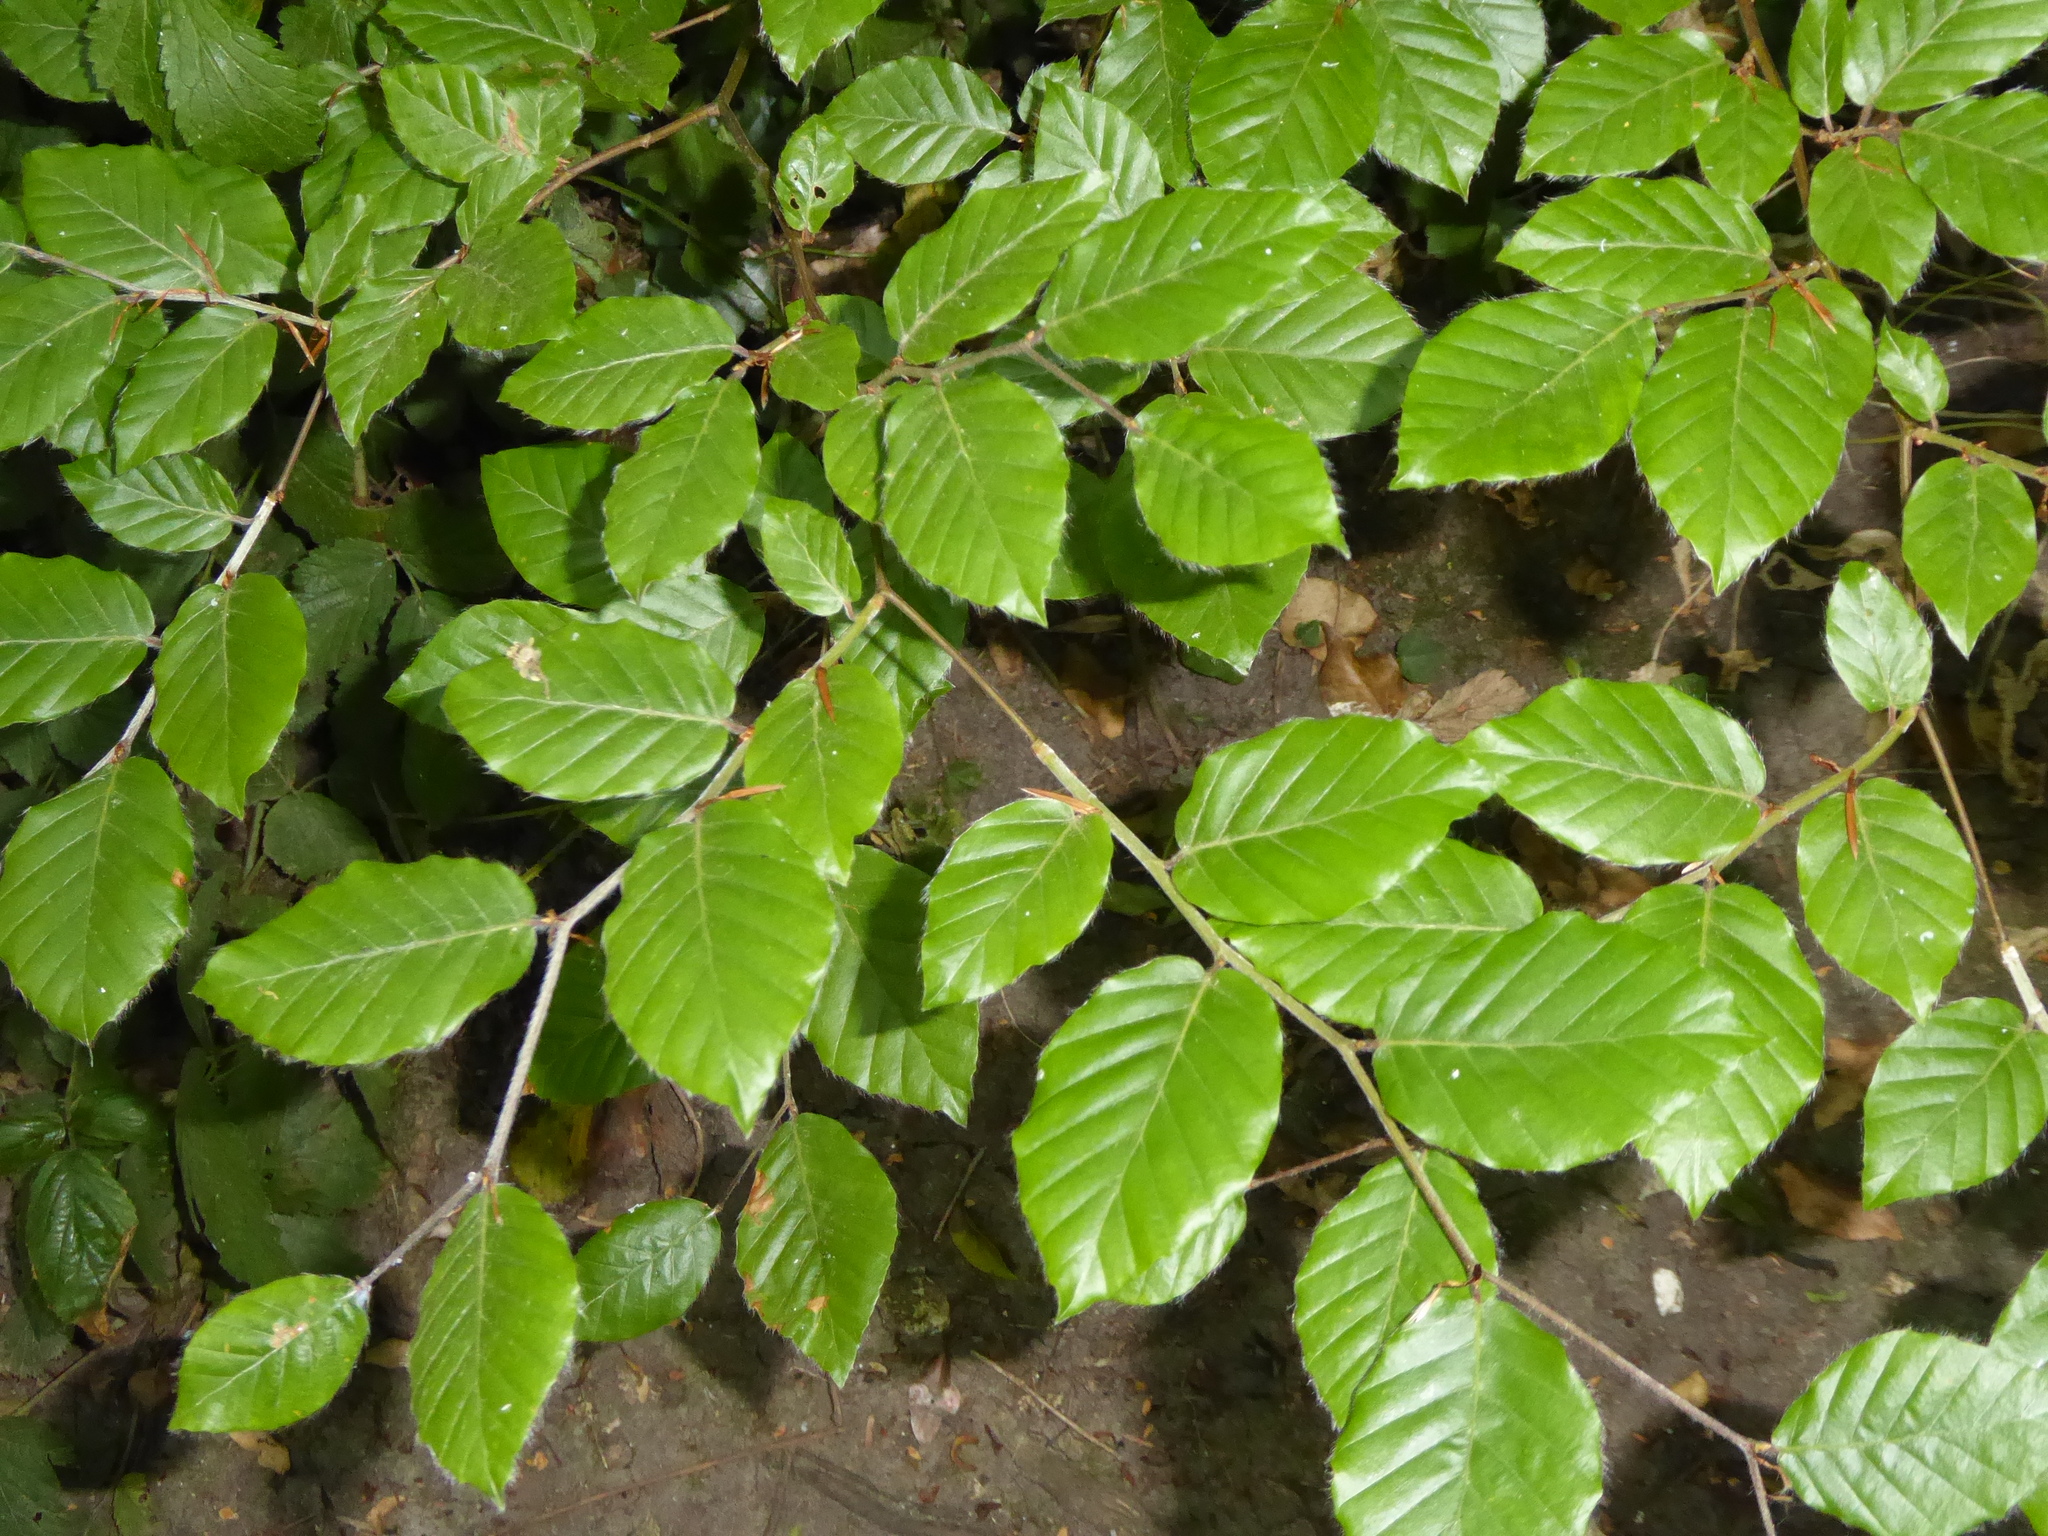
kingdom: Plantae
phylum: Tracheophyta
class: Magnoliopsida
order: Fagales
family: Fagaceae
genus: Fagus
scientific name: Fagus sylvatica
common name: Beech
